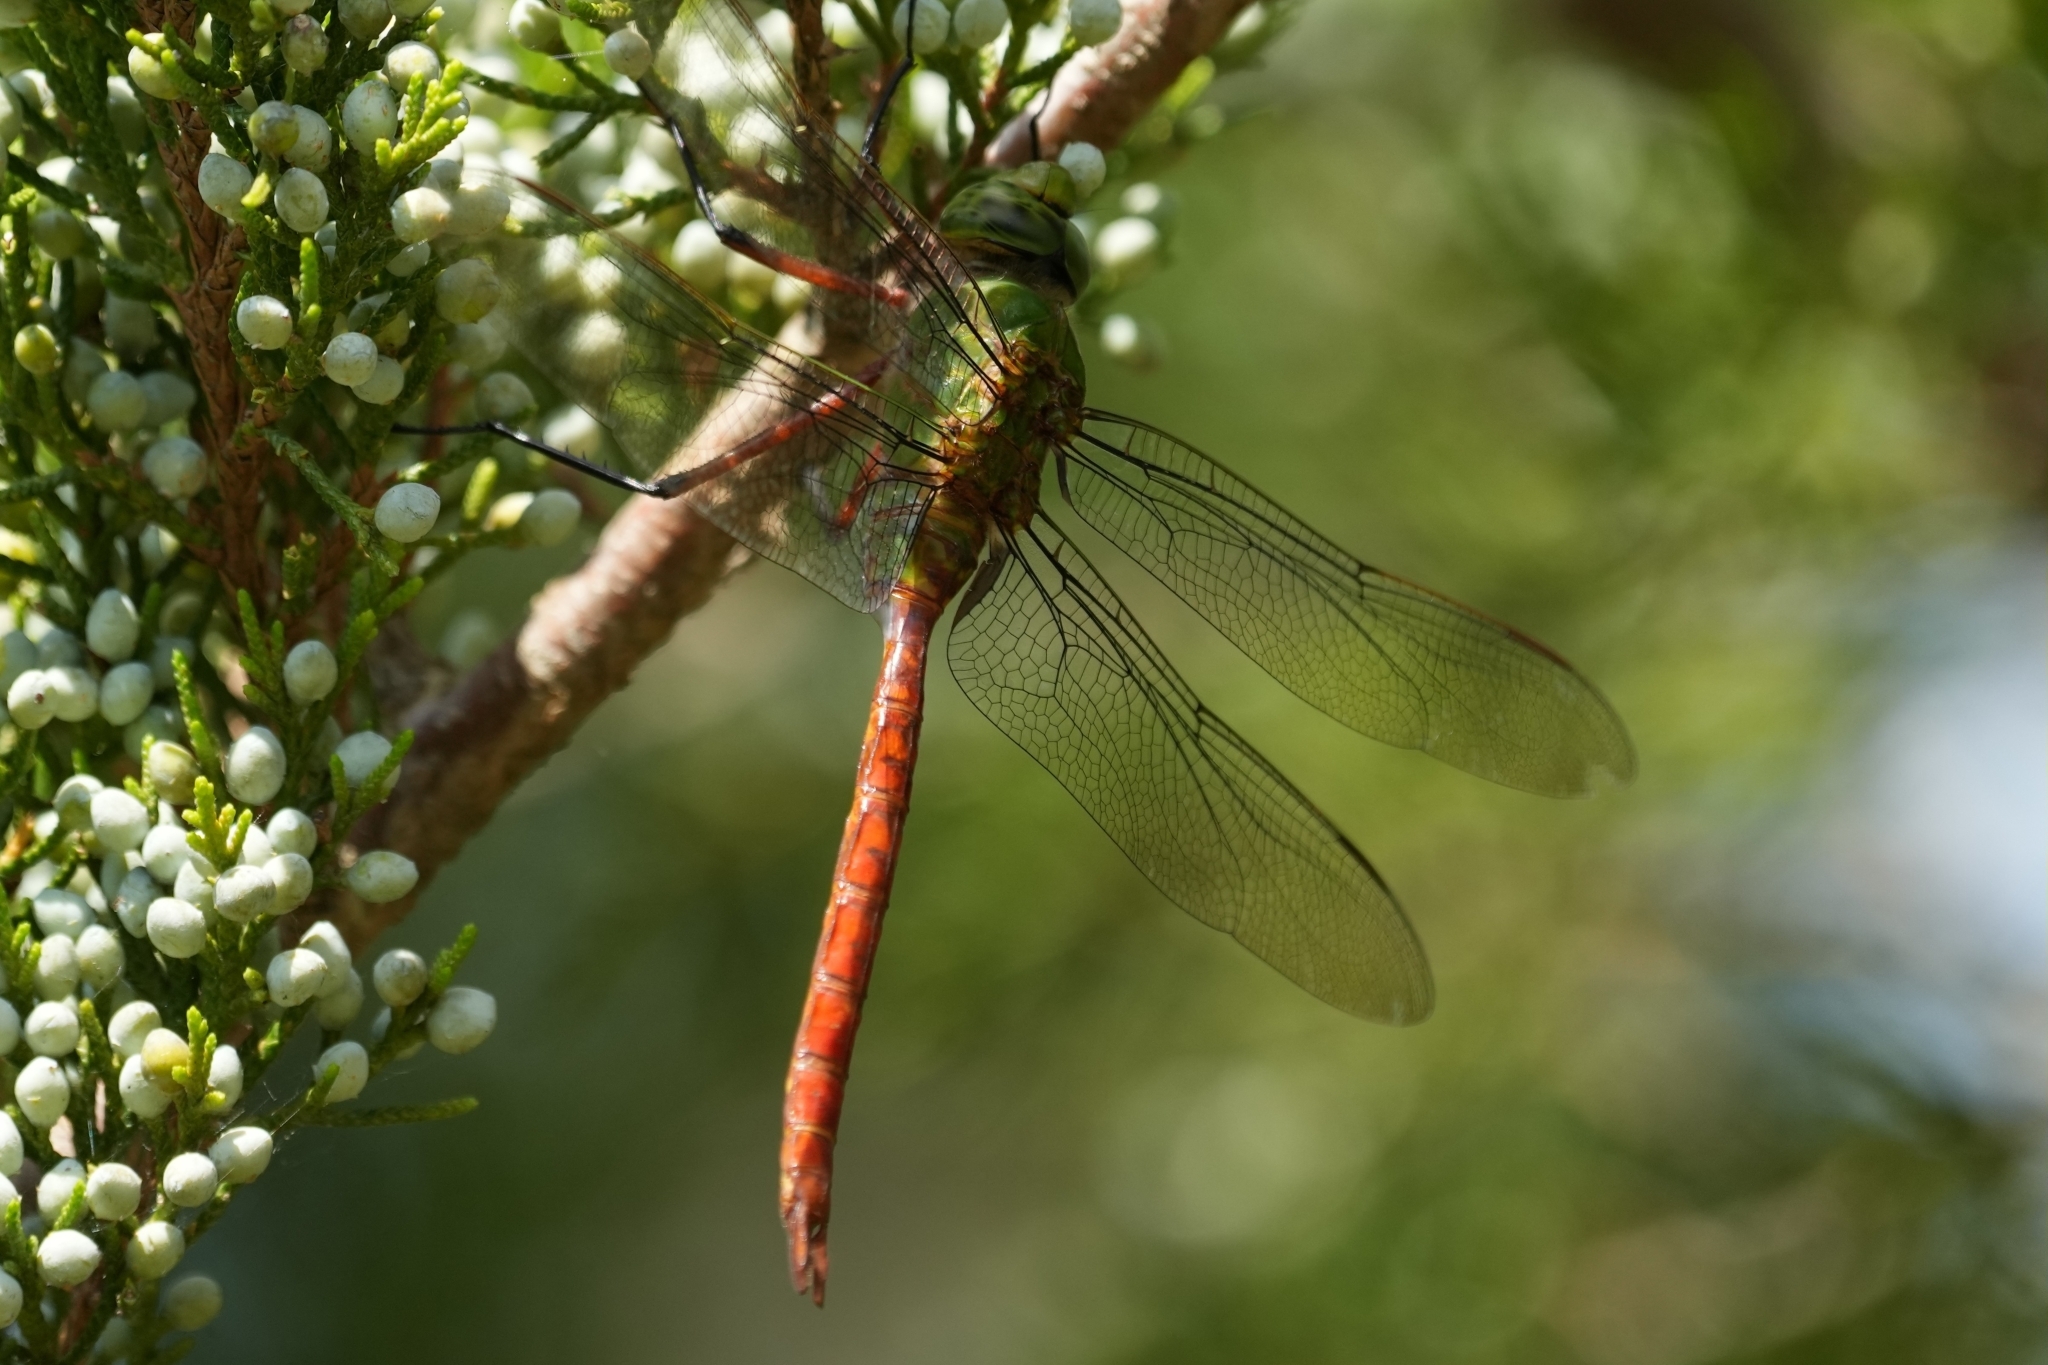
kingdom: Animalia
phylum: Arthropoda
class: Insecta
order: Odonata
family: Aeshnidae
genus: Anax
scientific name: Anax longipes
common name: Comet darner
